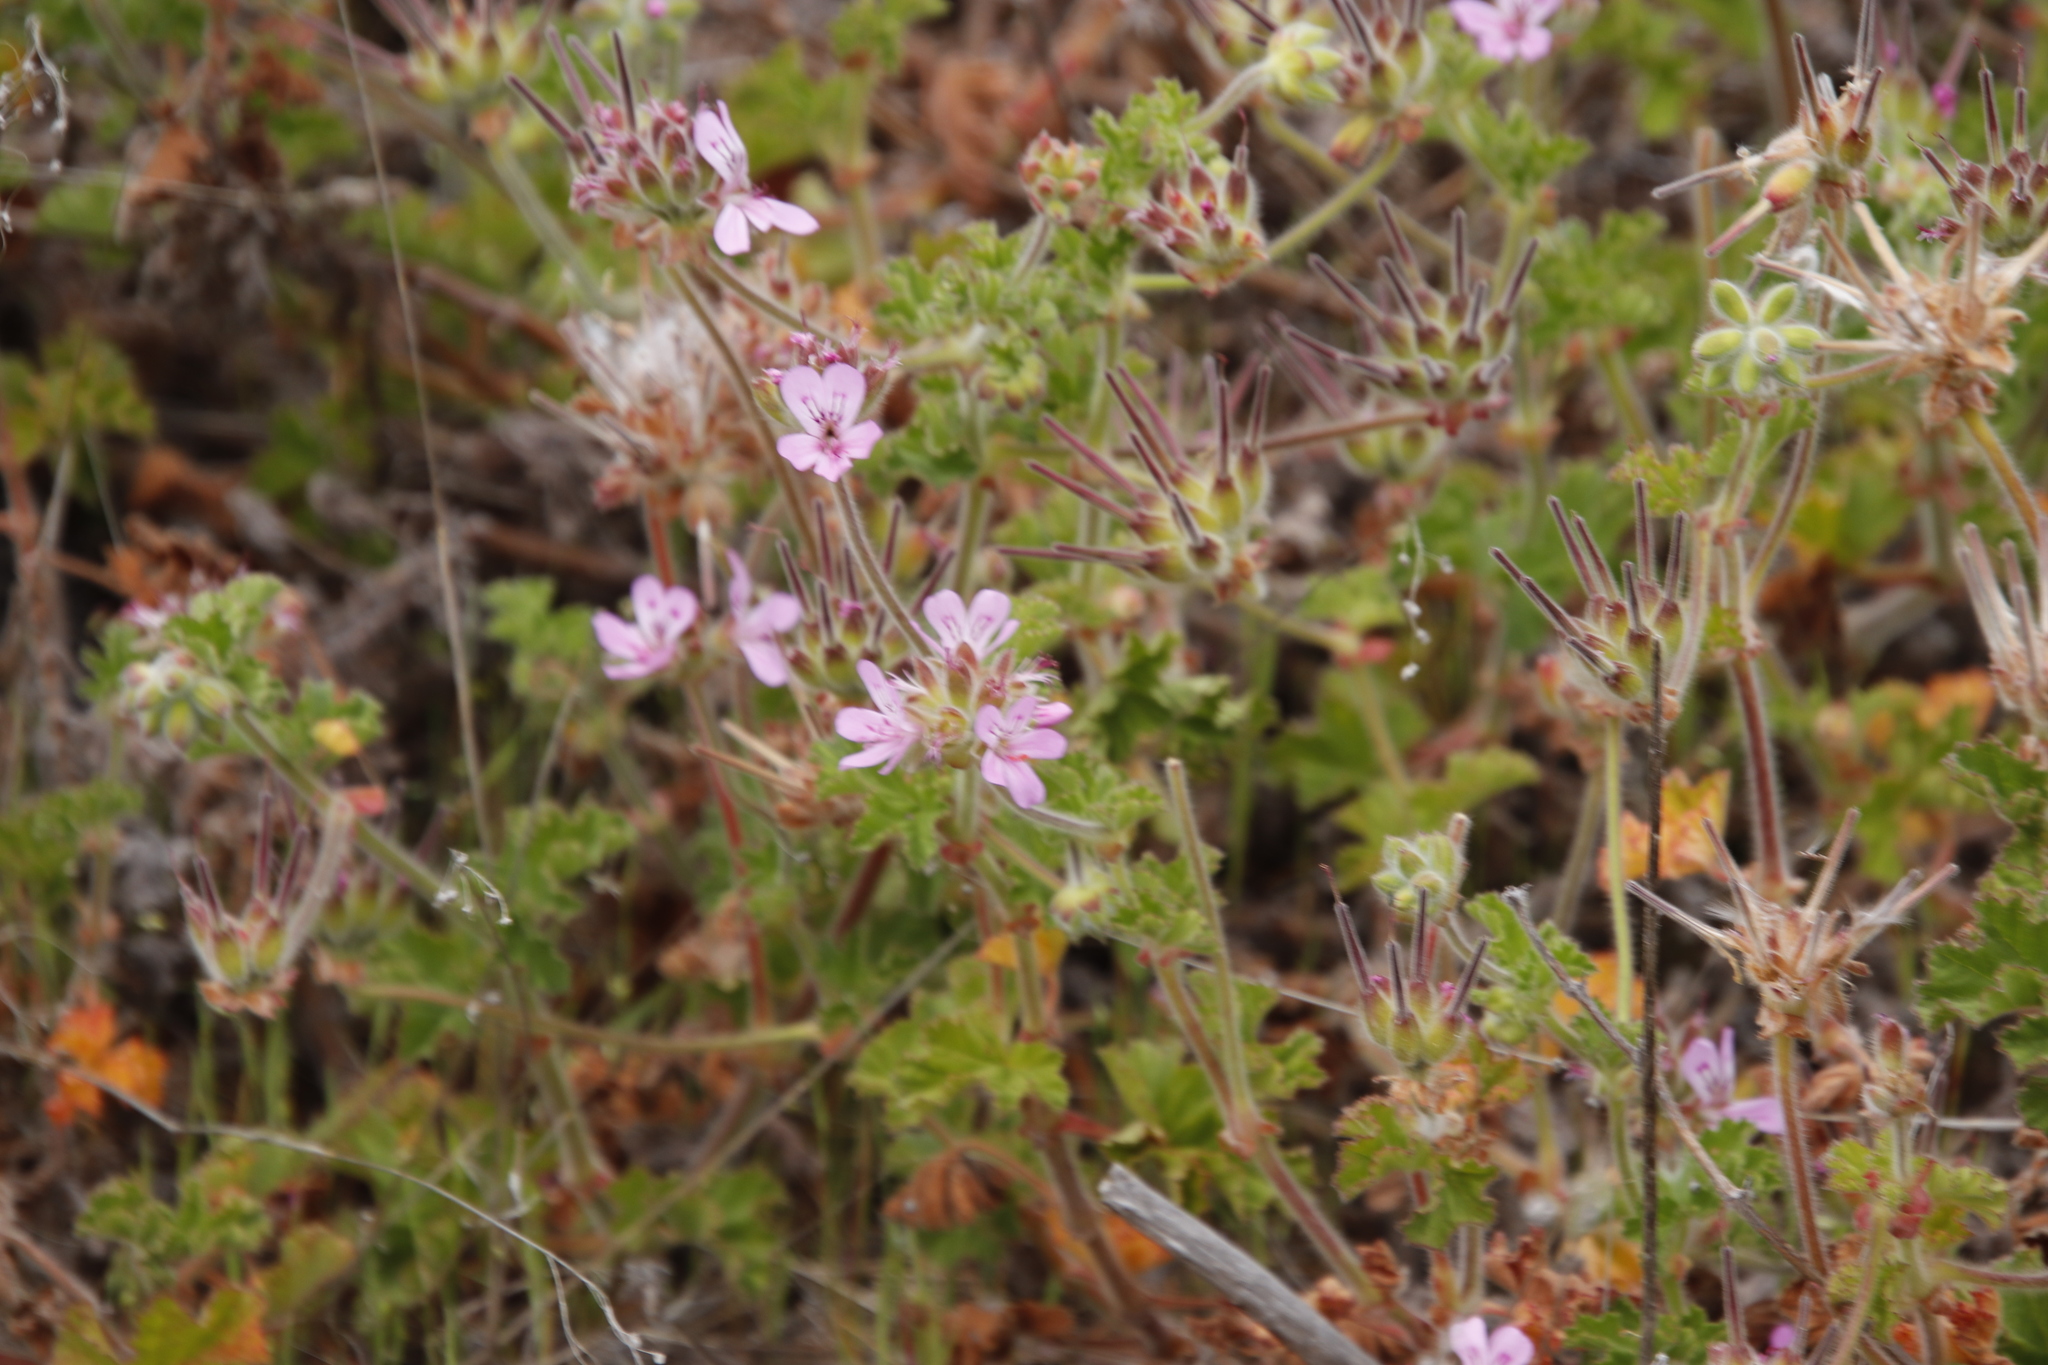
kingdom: Plantae
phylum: Tracheophyta
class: Magnoliopsida
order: Geraniales
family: Geraniaceae
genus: Pelargonium
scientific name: Pelargonium capitatum
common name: Rose scented geranium
